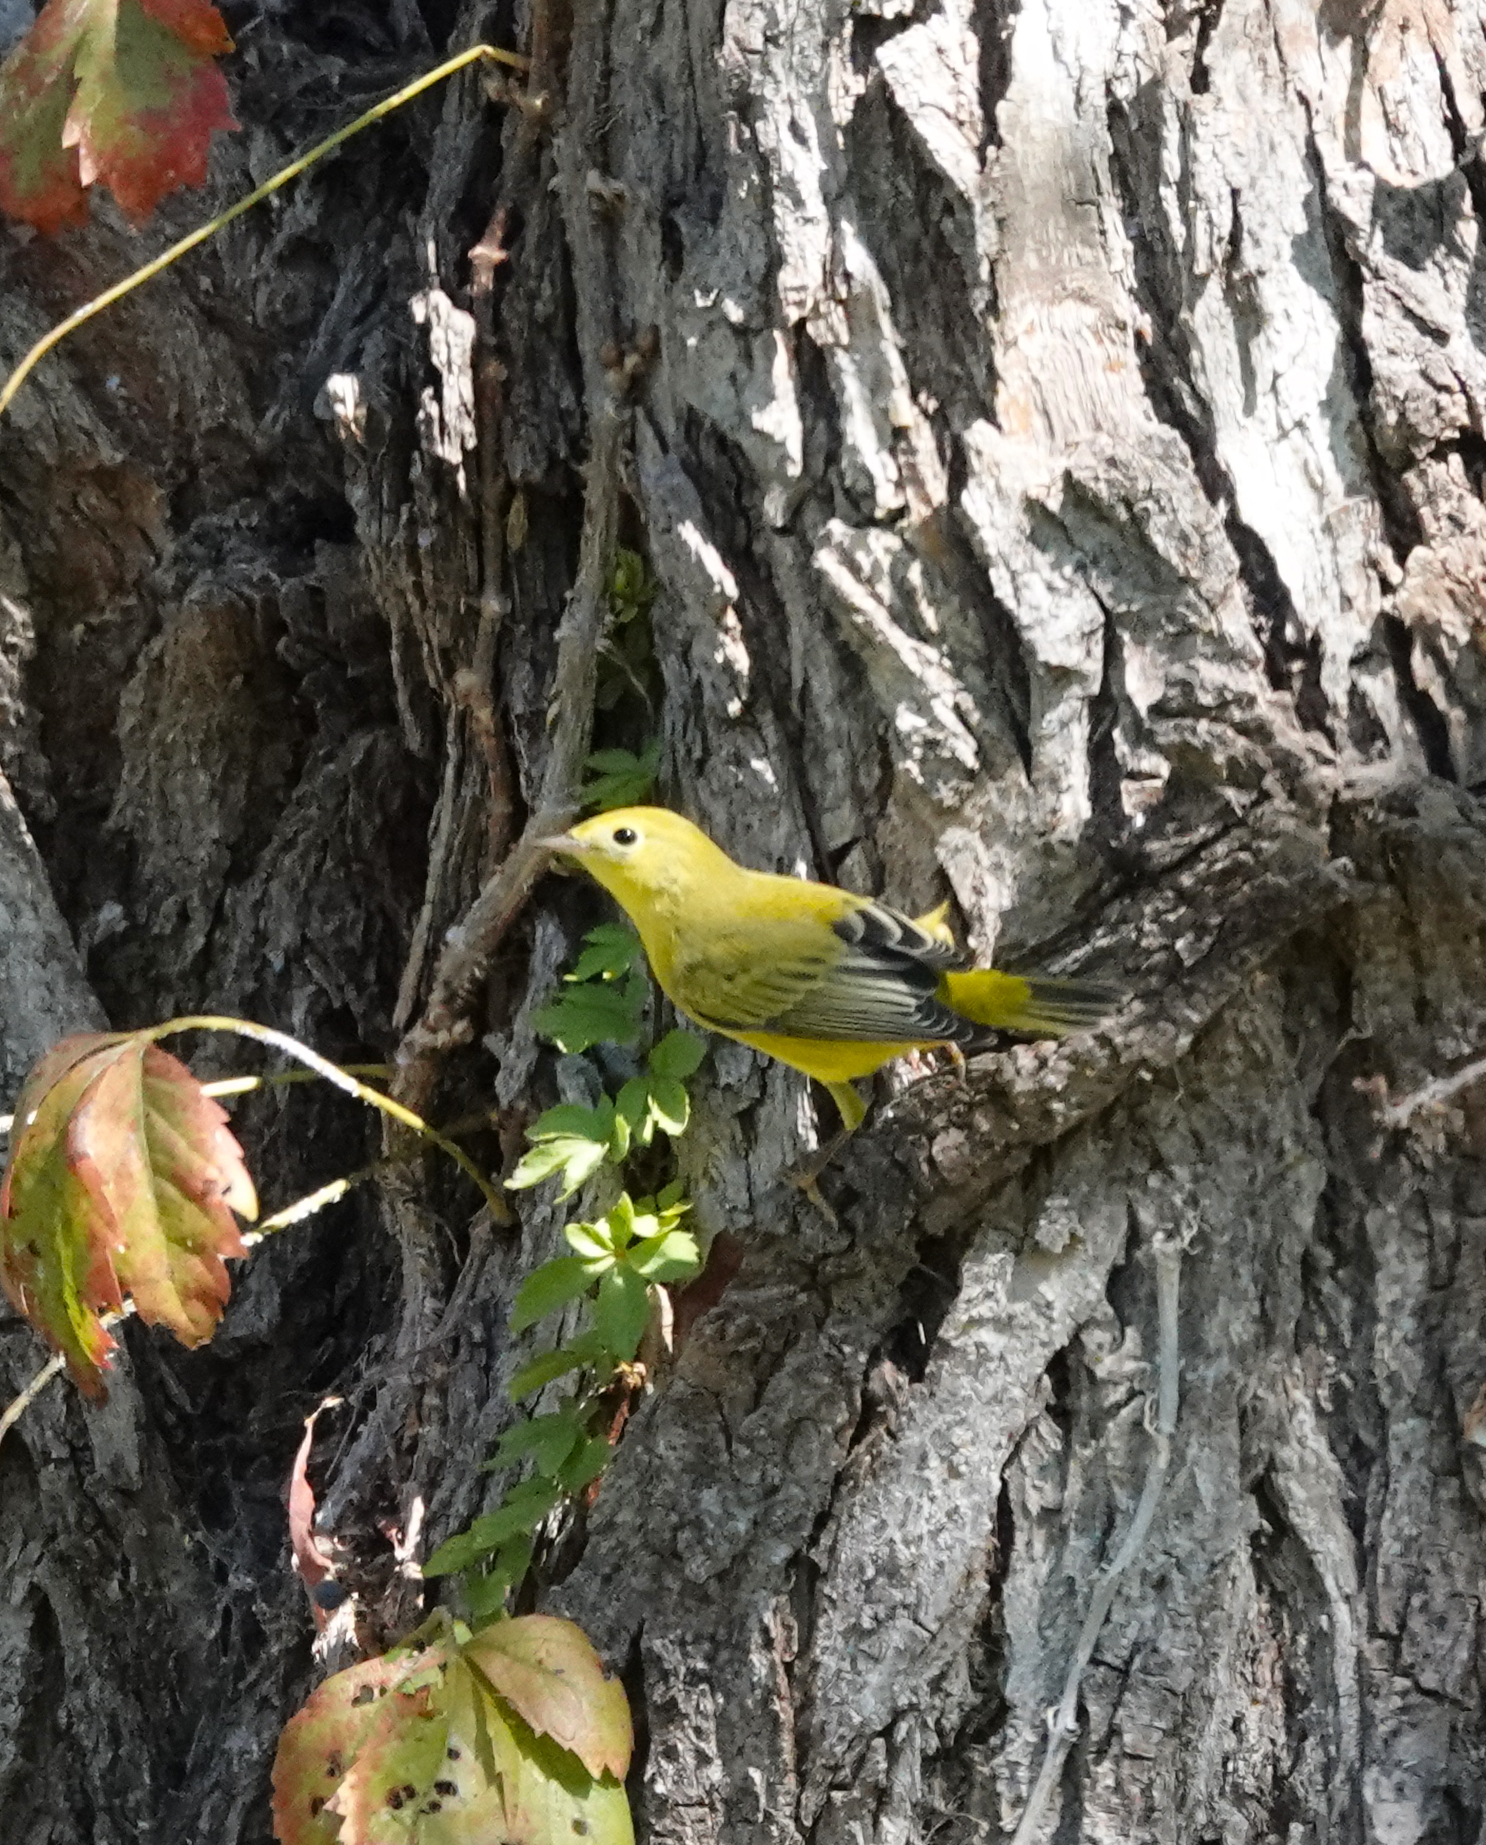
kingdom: Animalia
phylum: Chordata
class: Aves
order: Passeriformes
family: Parulidae
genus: Setophaga
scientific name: Setophaga petechia
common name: Yellow warbler
